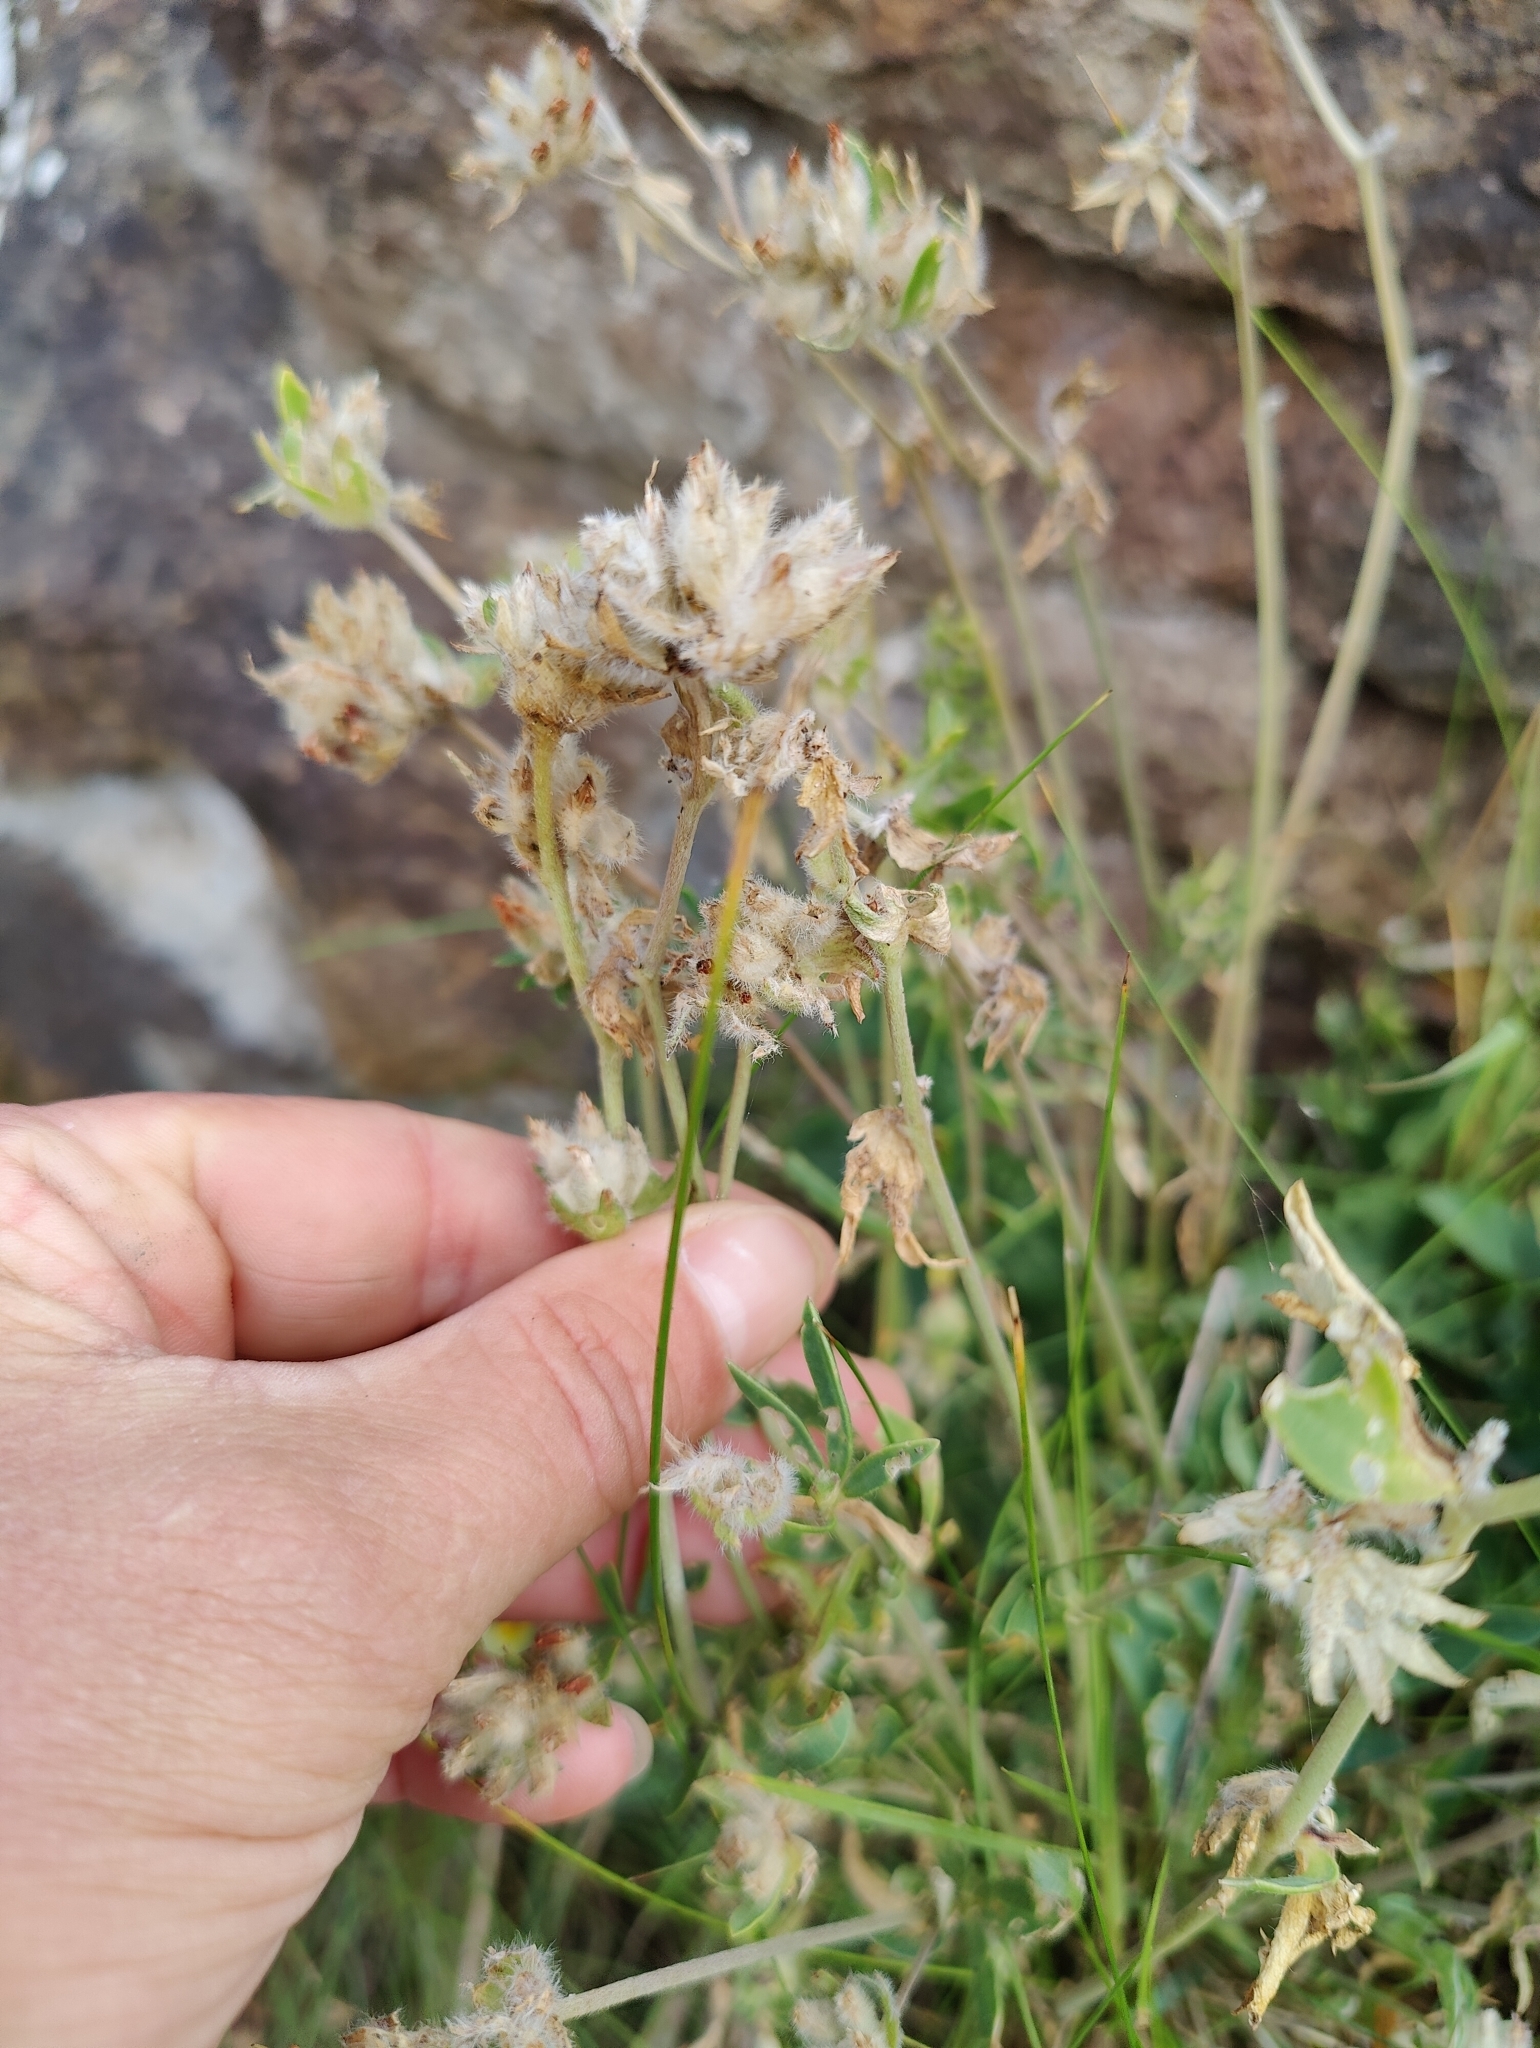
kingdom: Plantae
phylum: Tracheophyta
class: Magnoliopsida
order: Fabales
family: Fabaceae
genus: Anthyllis
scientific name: Anthyllis vulneraria
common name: Kidney vetch
